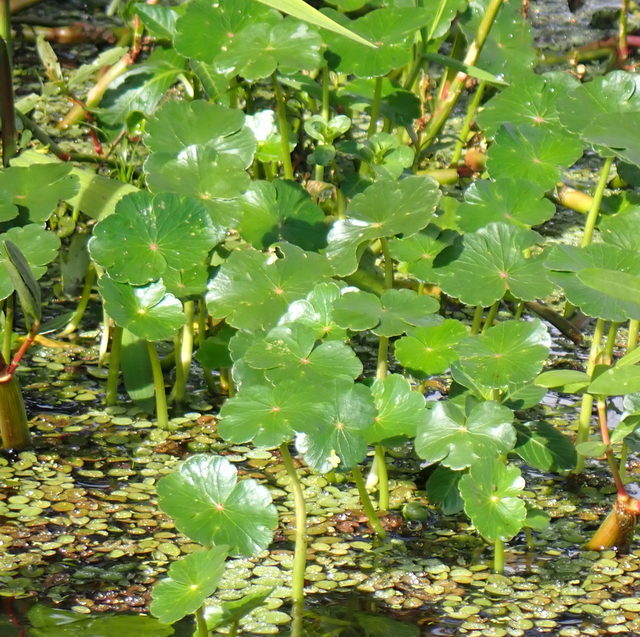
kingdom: Plantae
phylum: Tracheophyta
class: Magnoliopsida
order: Apiales
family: Araliaceae
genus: Hydrocotyle
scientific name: Hydrocotyle ranunculoides
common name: Floating pennywort
